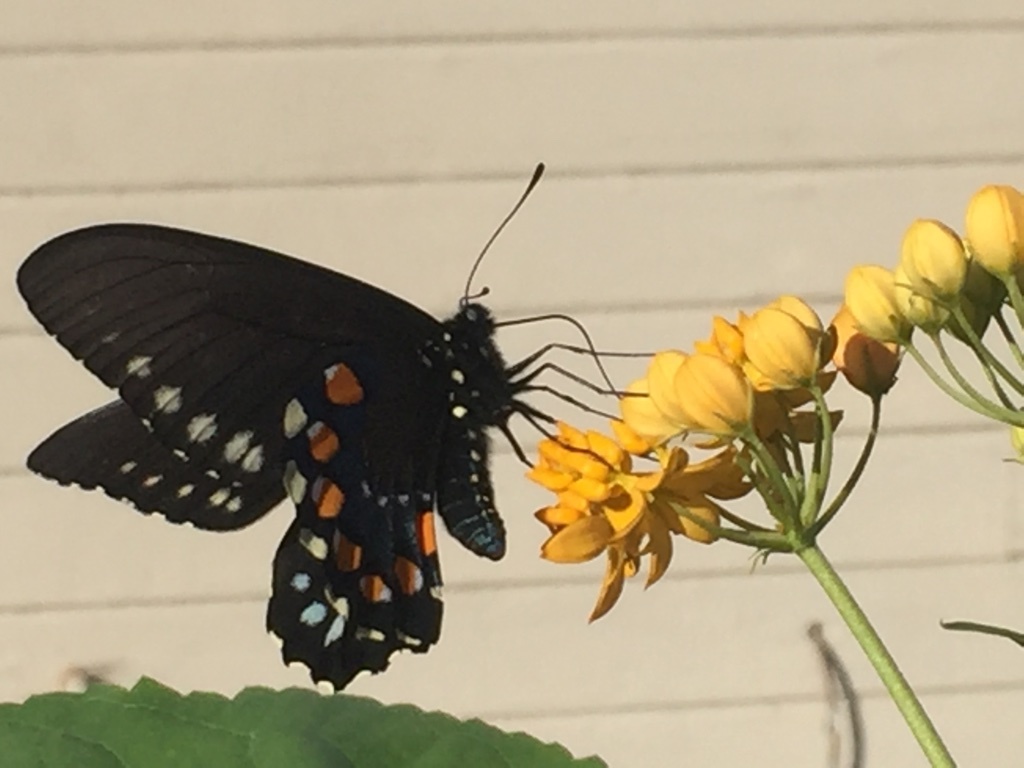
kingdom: Animalia
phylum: Arthropoda
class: Insecta
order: Lepidoptera
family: Papilionidae
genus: Battus
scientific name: Battus philenor
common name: Pipevine swallowtail
